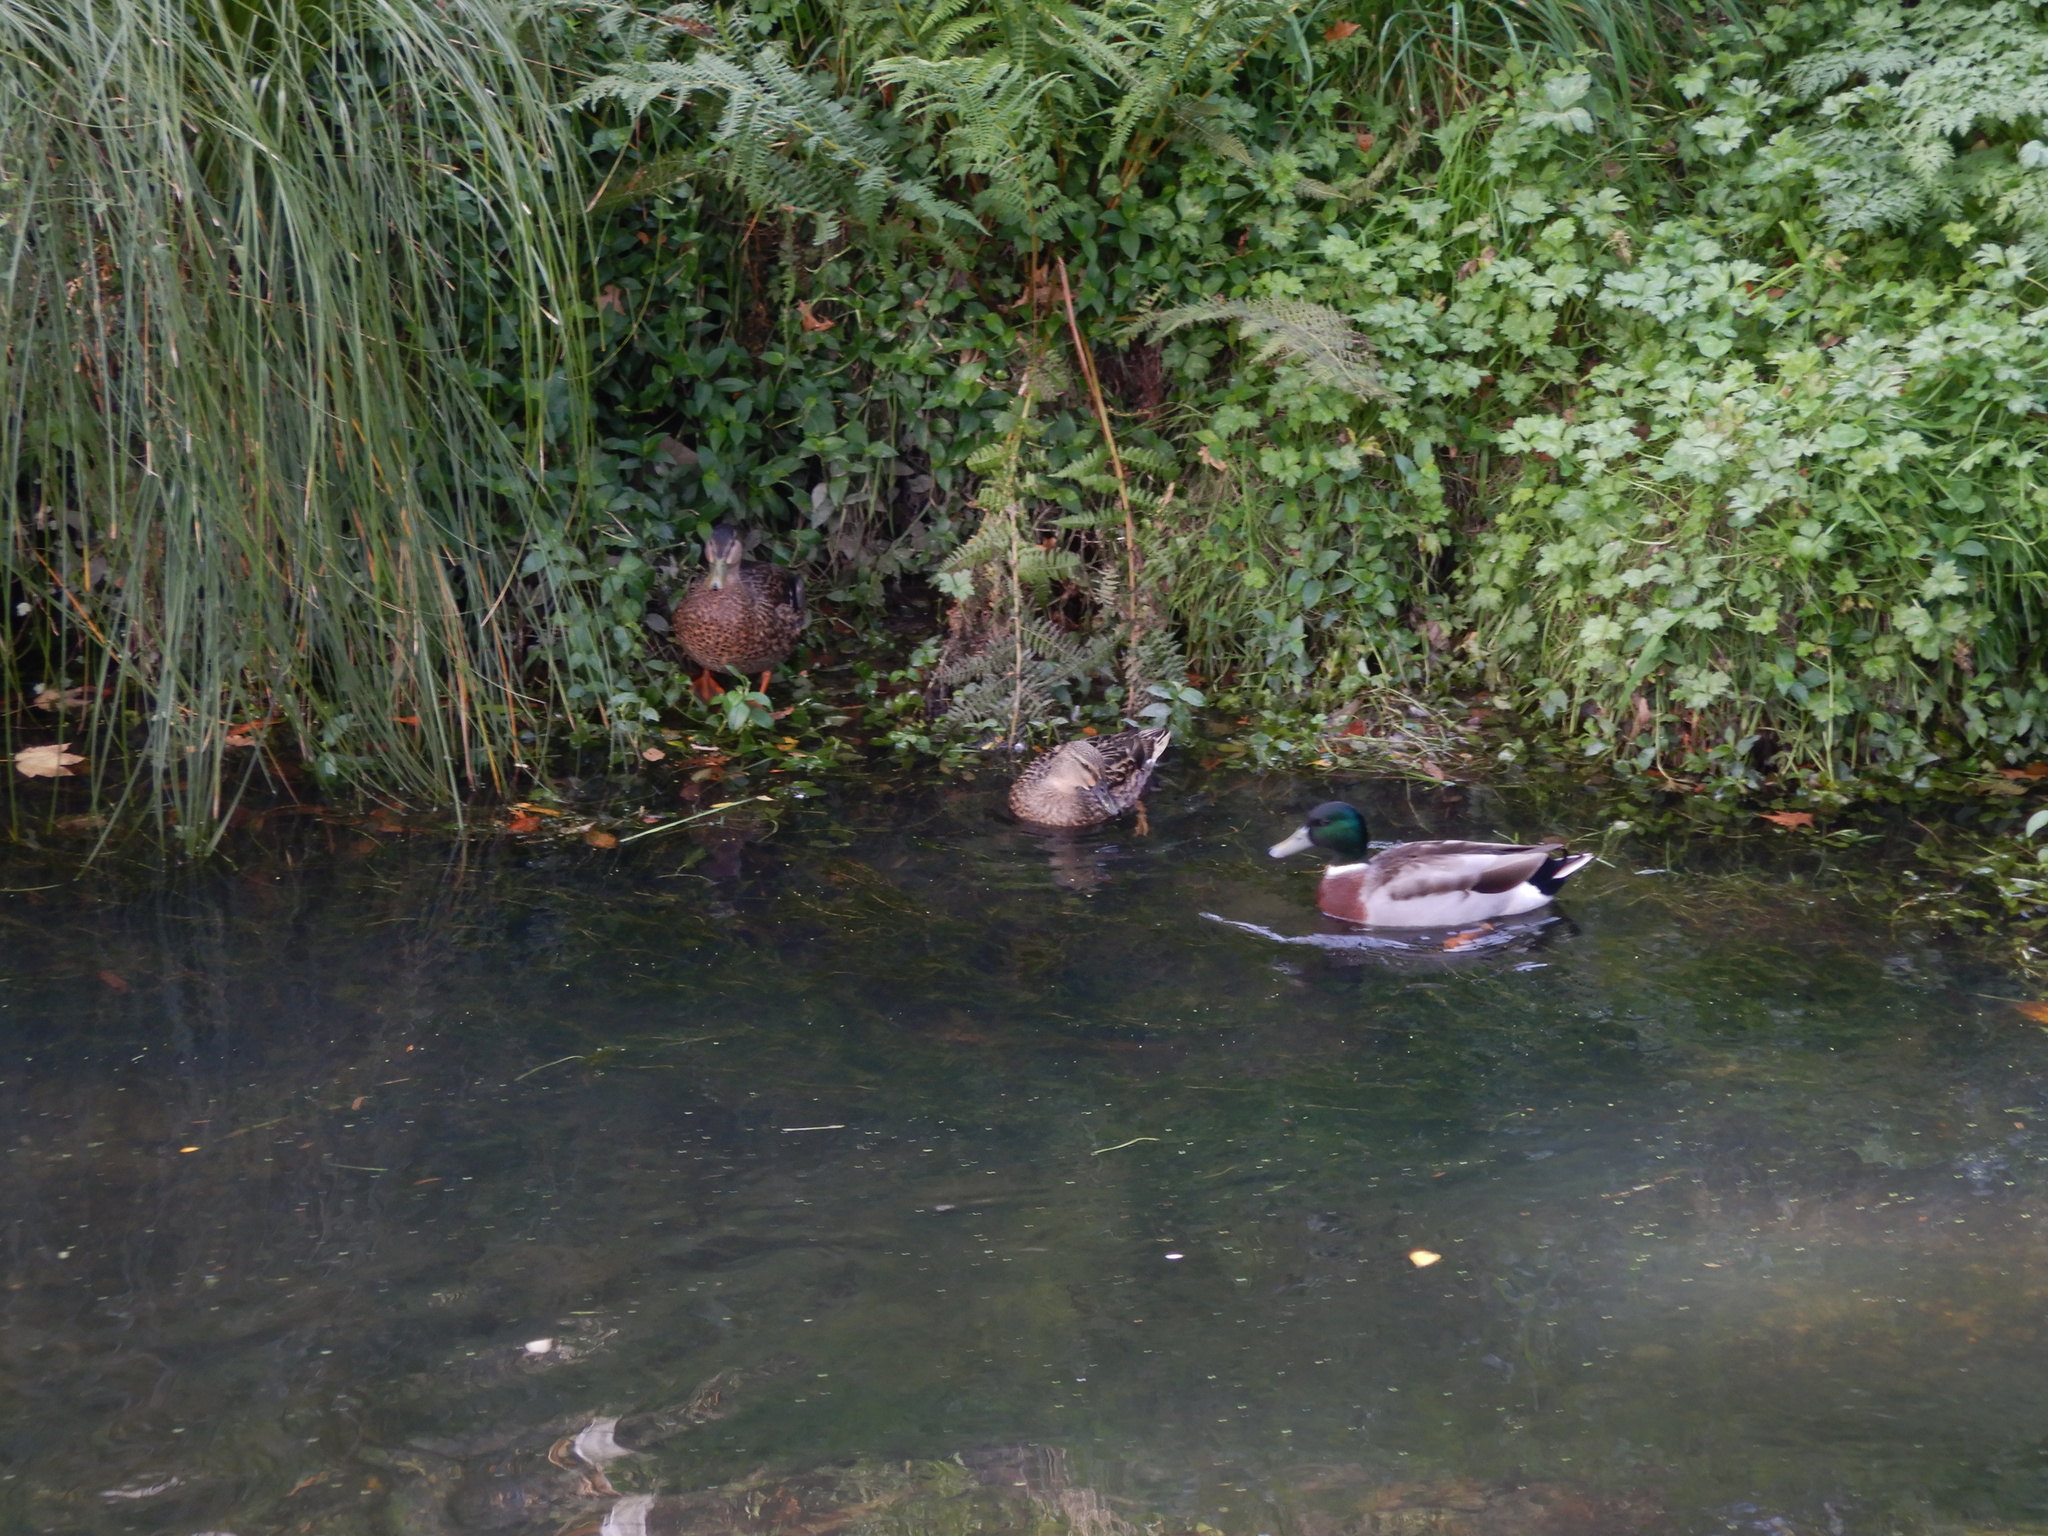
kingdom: Animalia
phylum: Chordata
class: Aves
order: Anseriformes
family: Anatidae
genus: Anas
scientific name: Anas platyrhynchos
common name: Mallard
